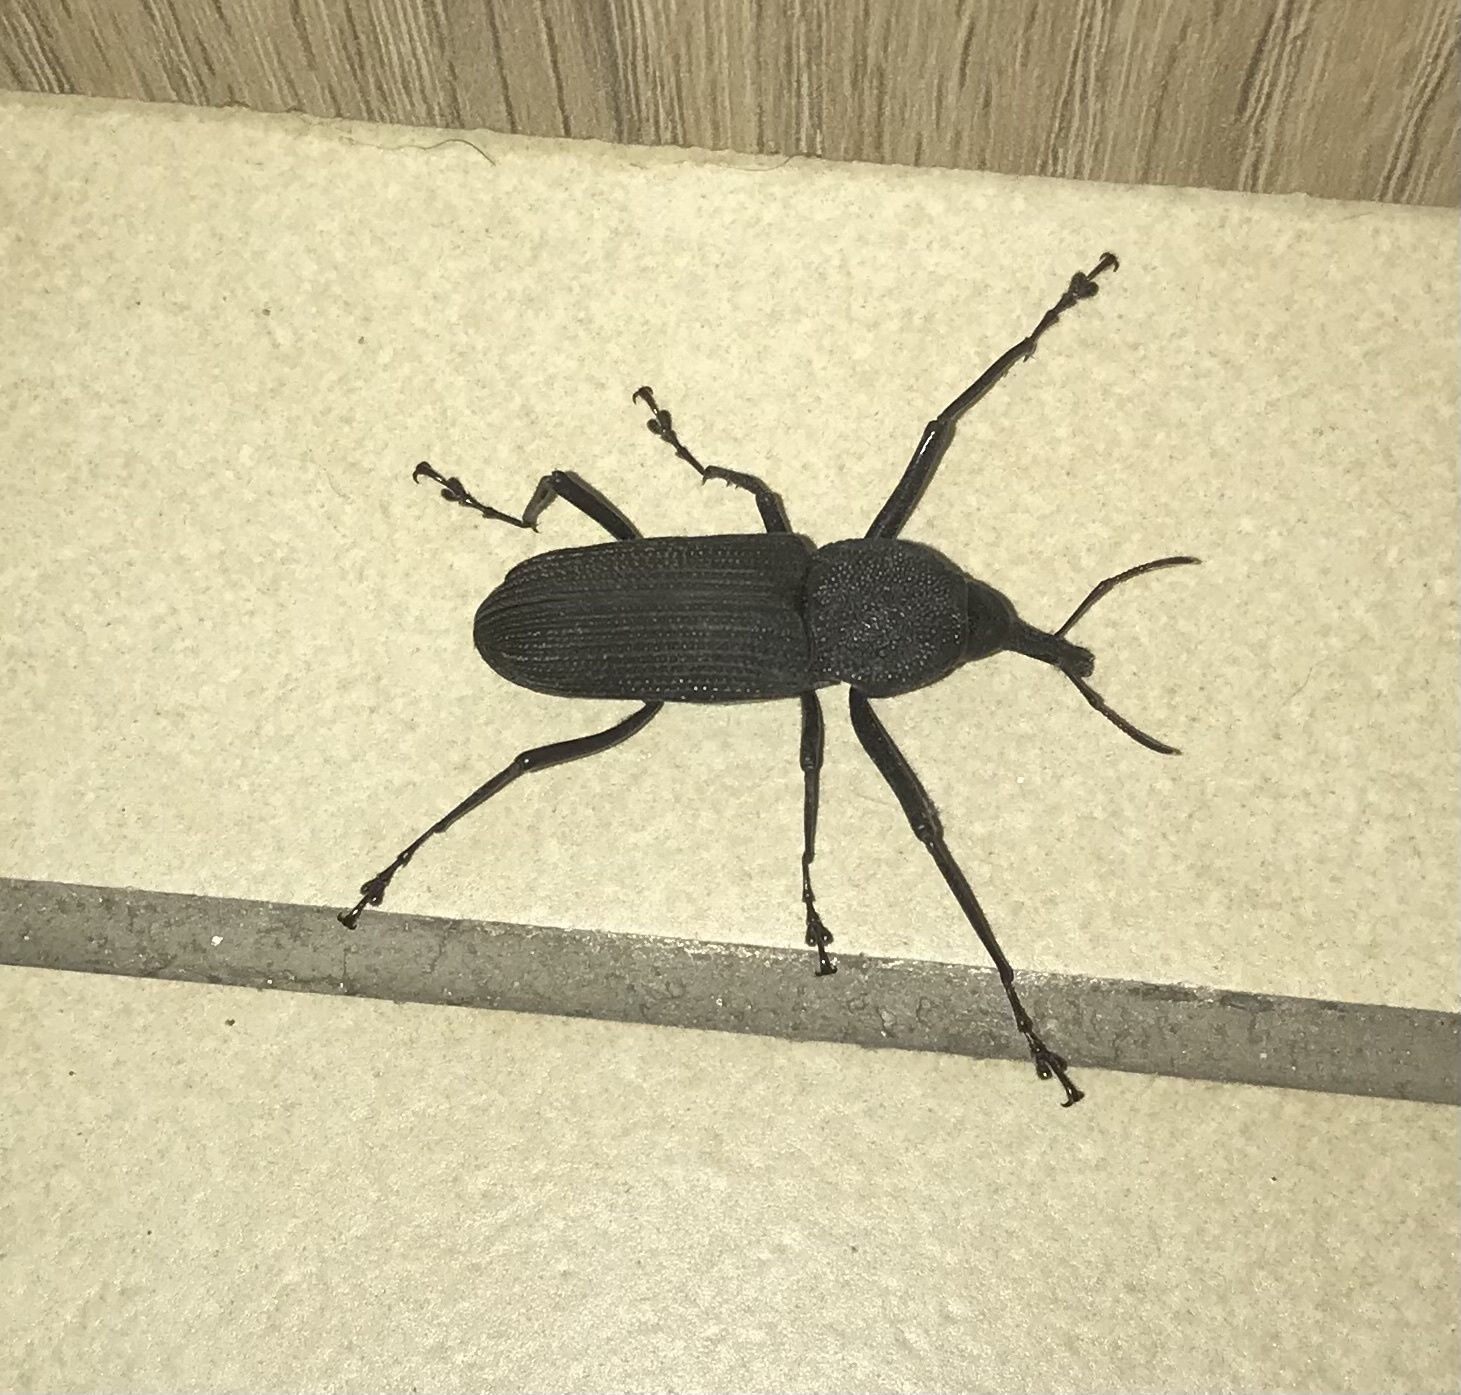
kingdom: Animalia
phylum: Arthropoda
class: Insecta
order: Coleoptera
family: Dryophthoridae
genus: Rhinostomus
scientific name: Rhinostomus barbirostris
